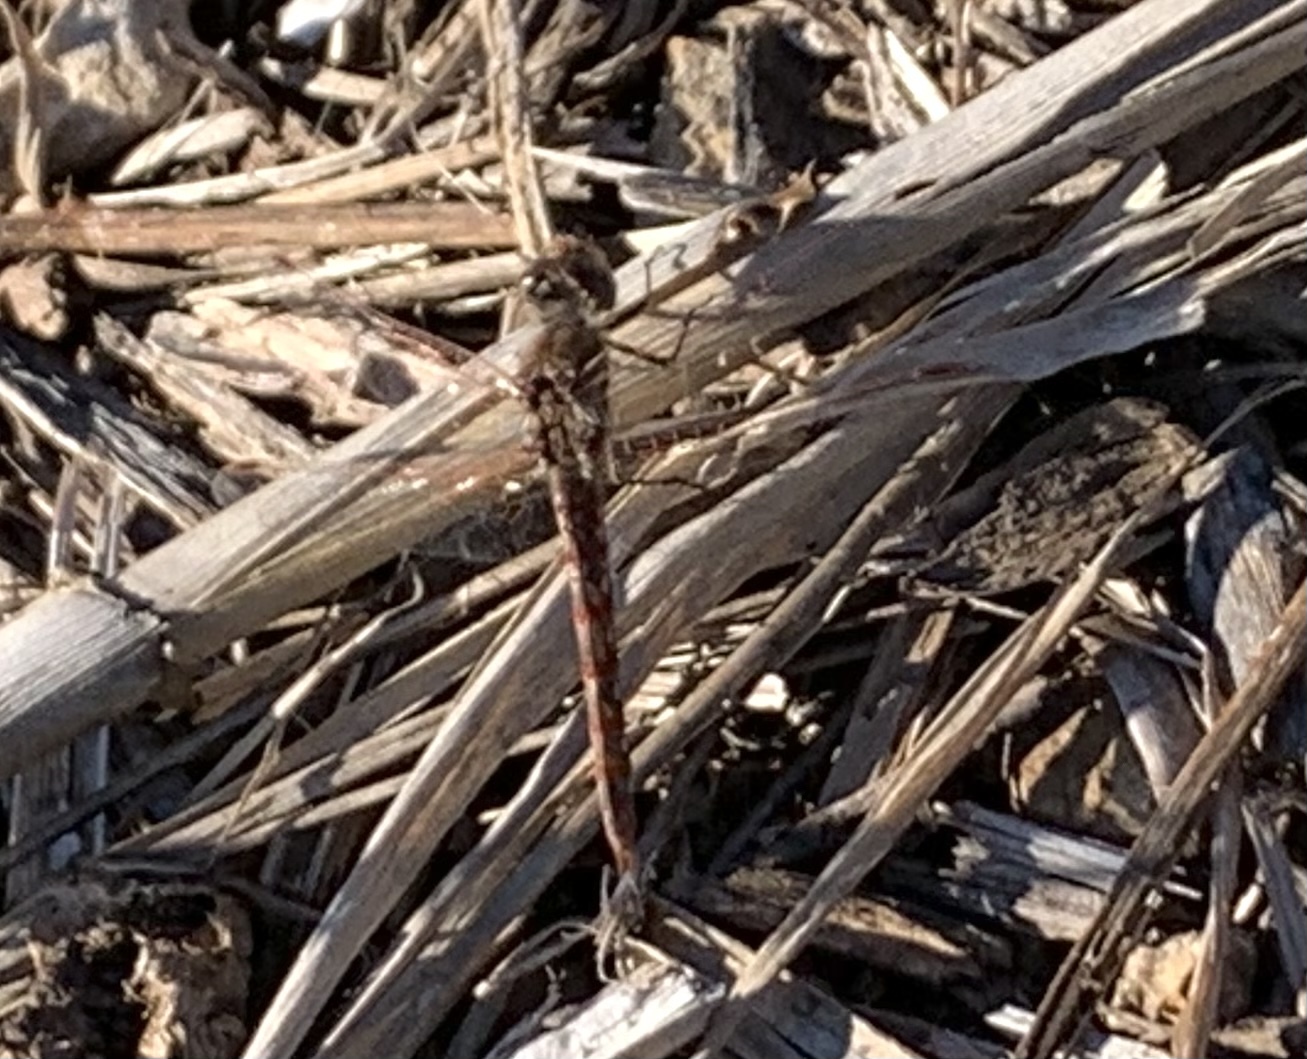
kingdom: Animalia
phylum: Arthropoda
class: Insecta
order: Odonata
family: Libellulidae
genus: Sympetrum
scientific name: Sympetrum corruptum
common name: Variegated meadowhawk
